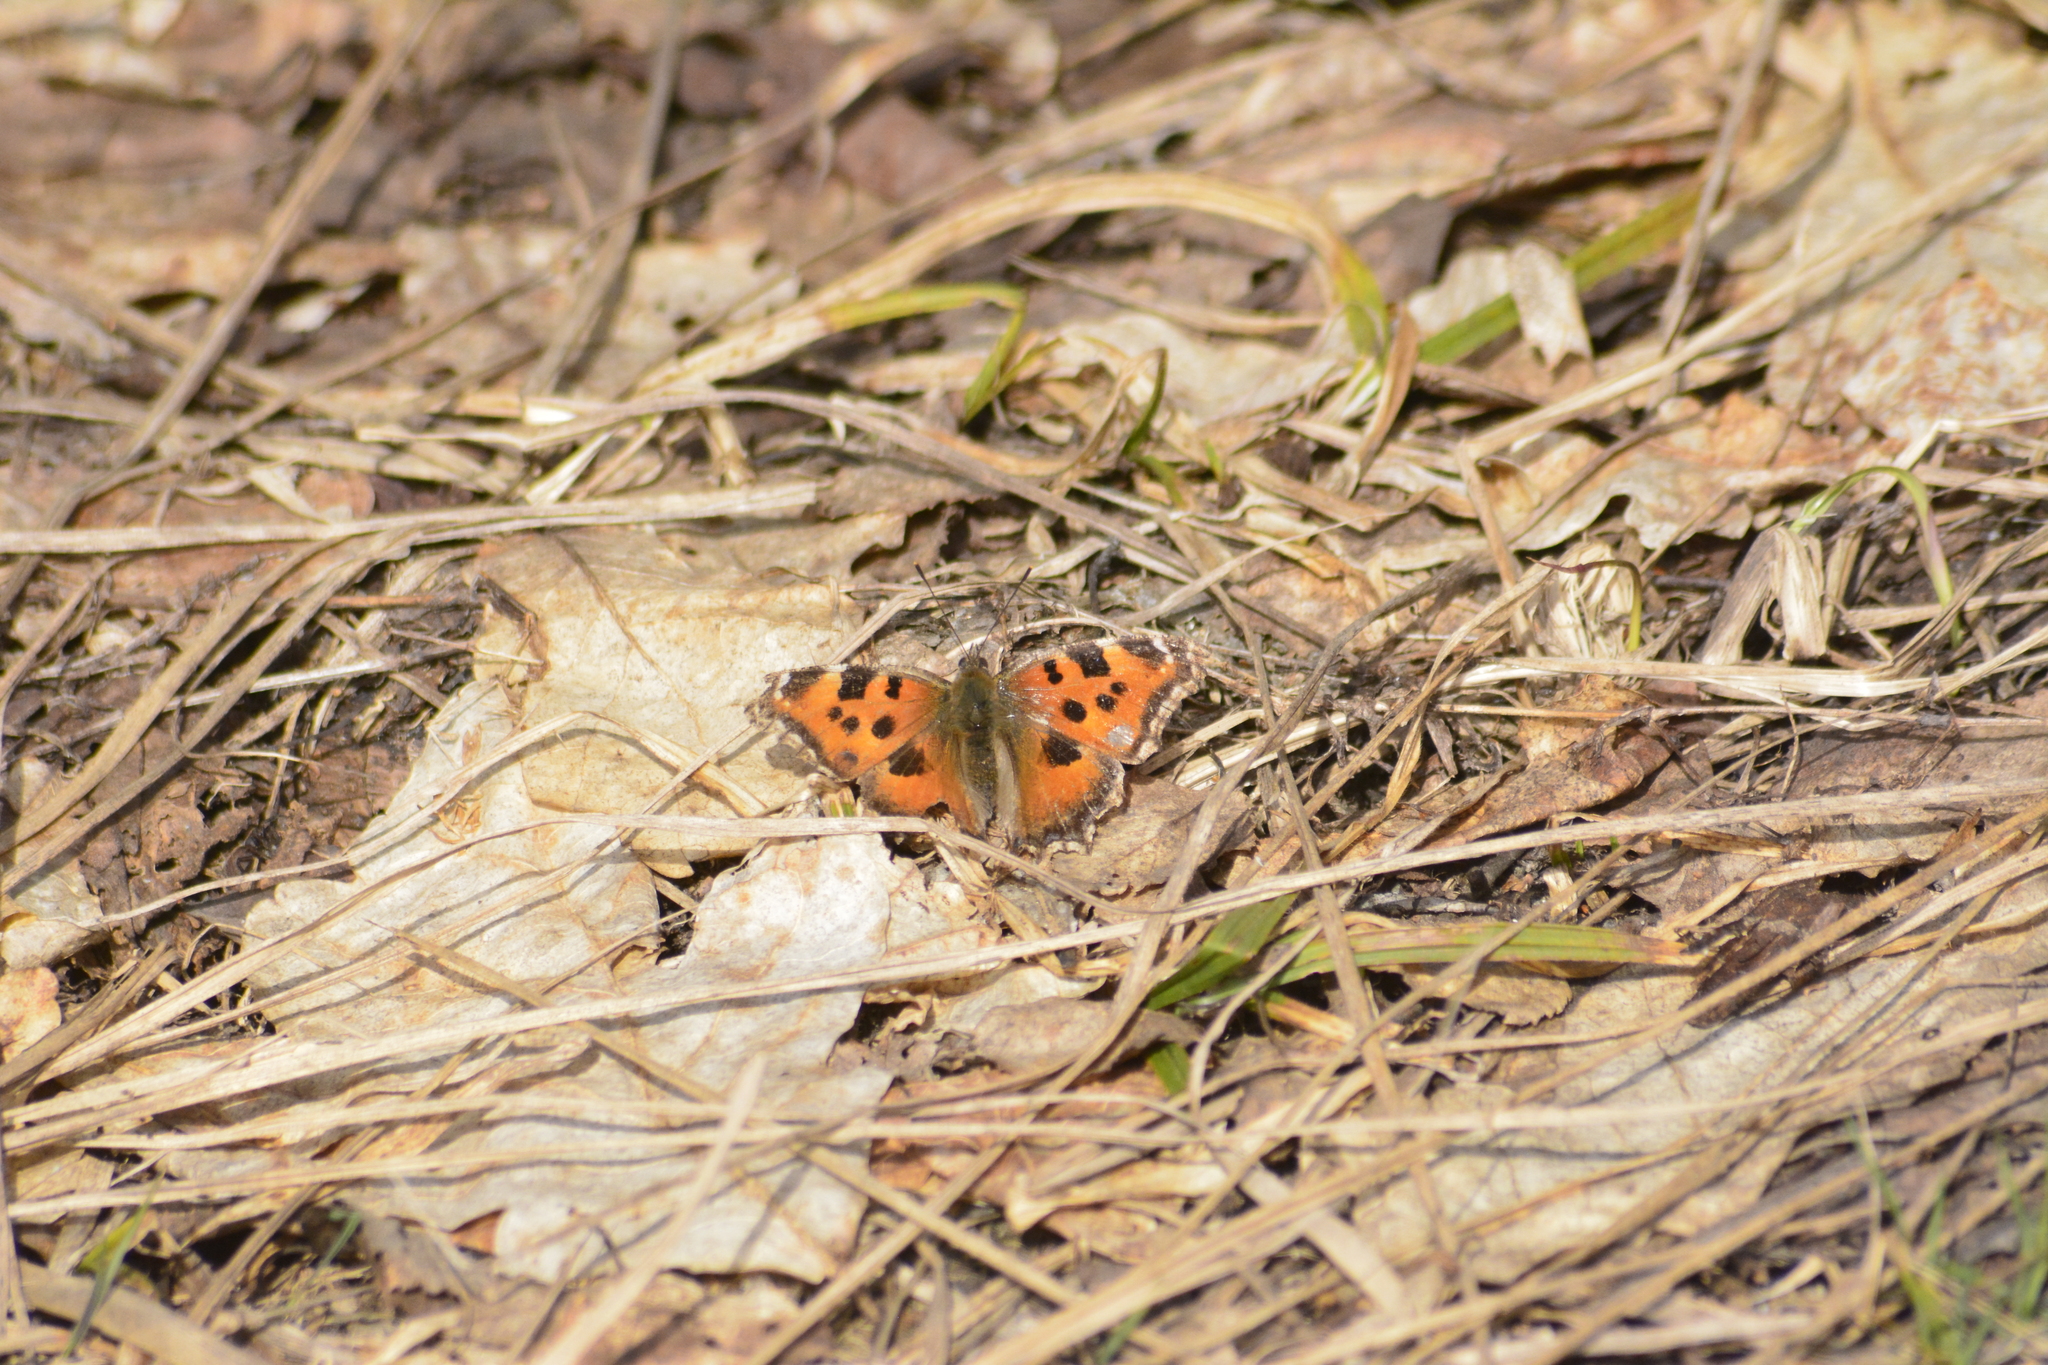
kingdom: Animalia
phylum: Arthropoda
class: Insecta
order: Lepidoptera
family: Nymphalidae
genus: Nymphalis
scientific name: Nymphalis xanthomelas
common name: Scarce tortoiseshell
